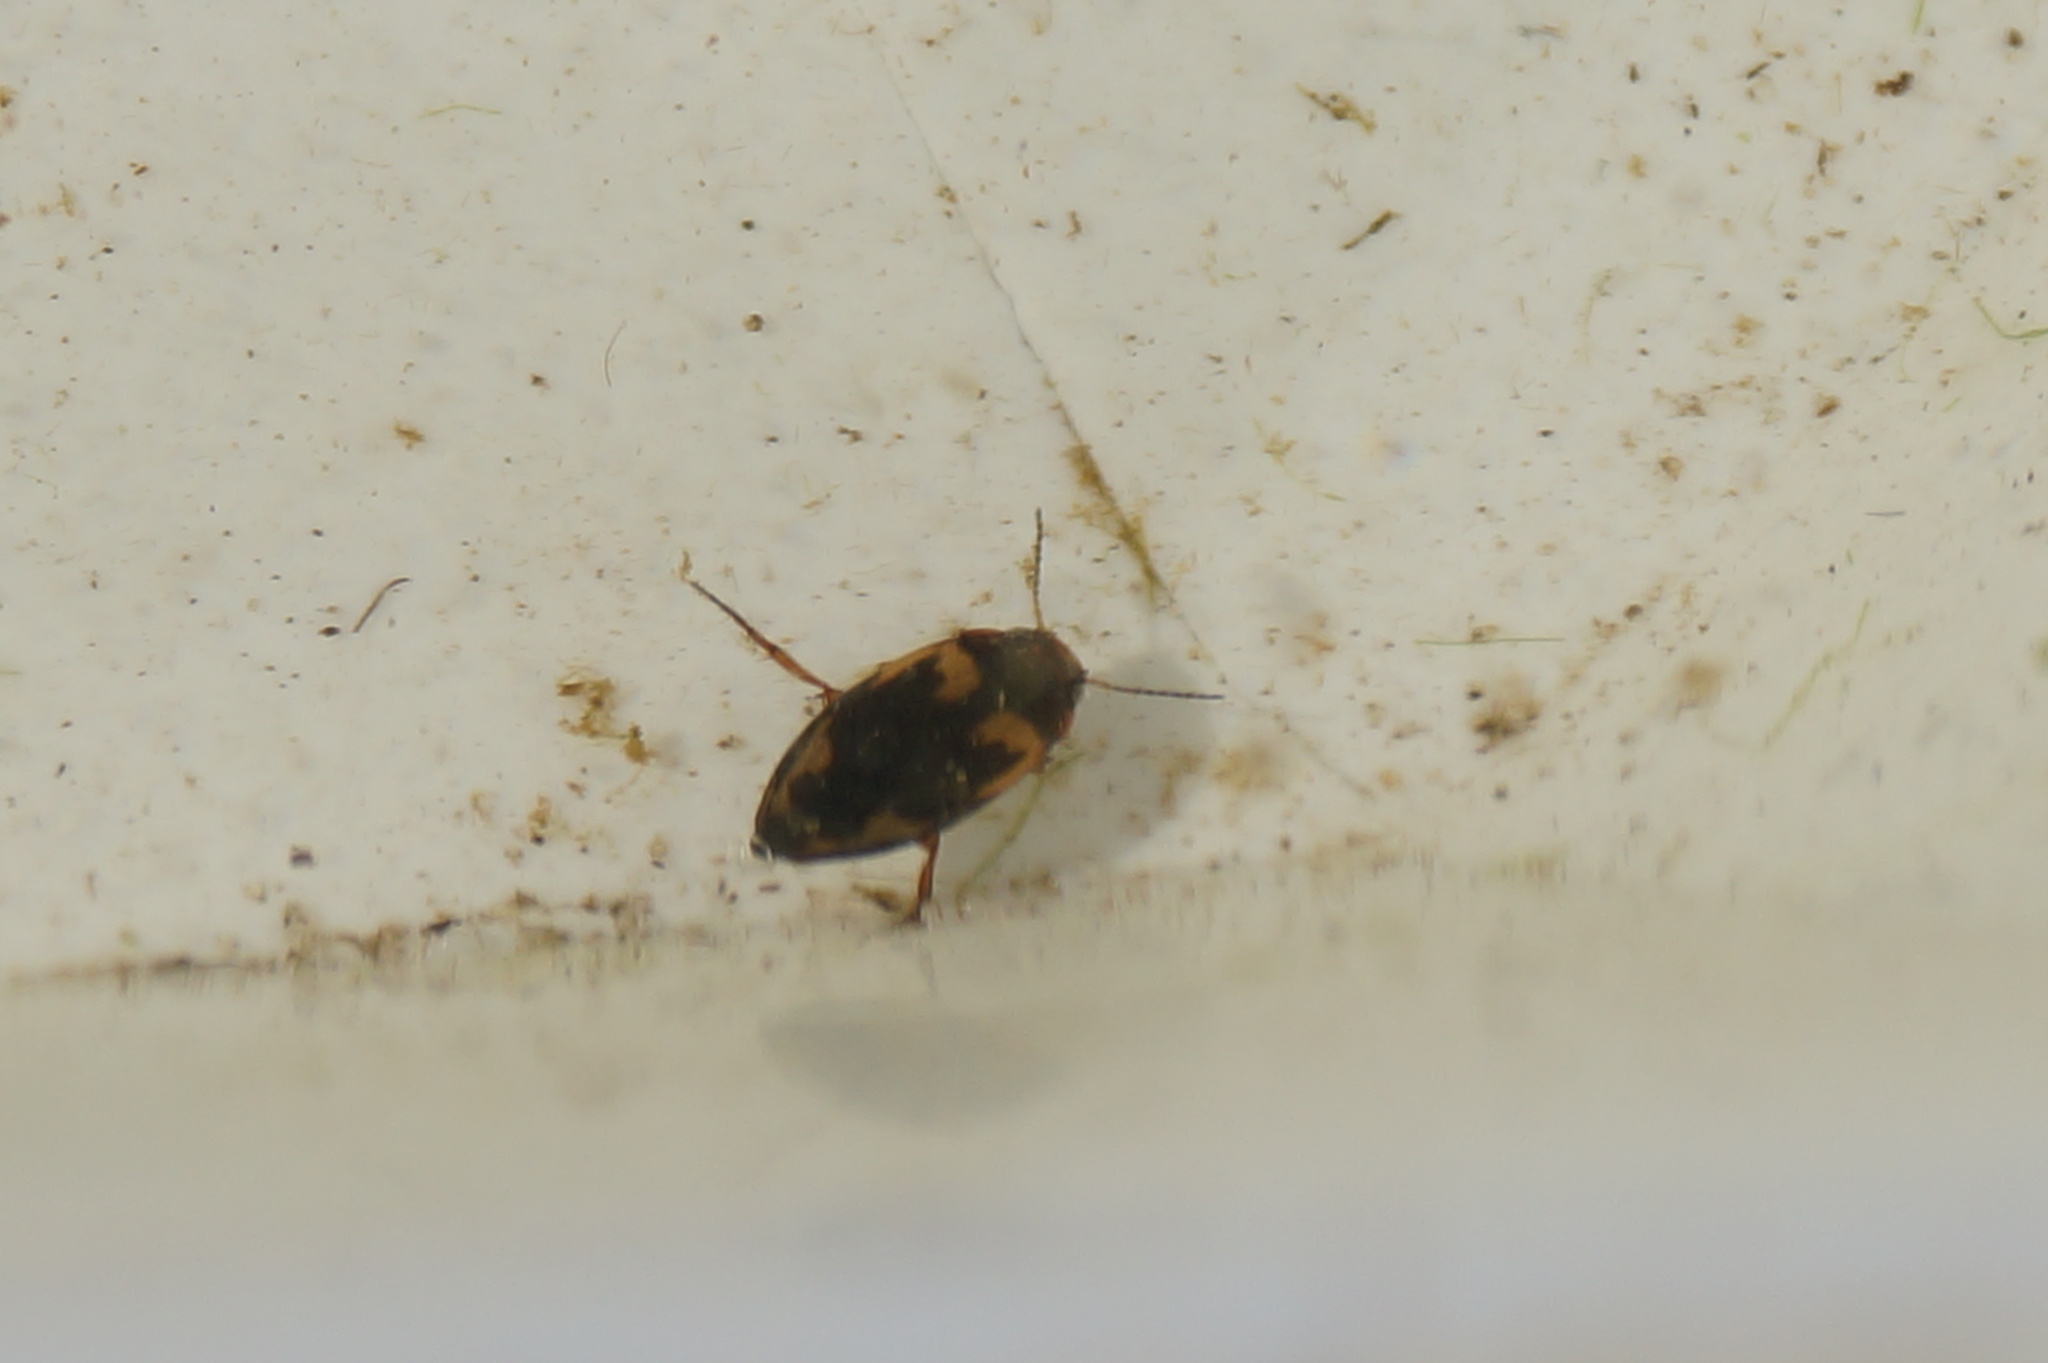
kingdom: Animalia
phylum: Arthropoda
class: Insecta
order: Coleoptera
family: Dytiscidae
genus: Hydroporus
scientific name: Hydroporus palustris
